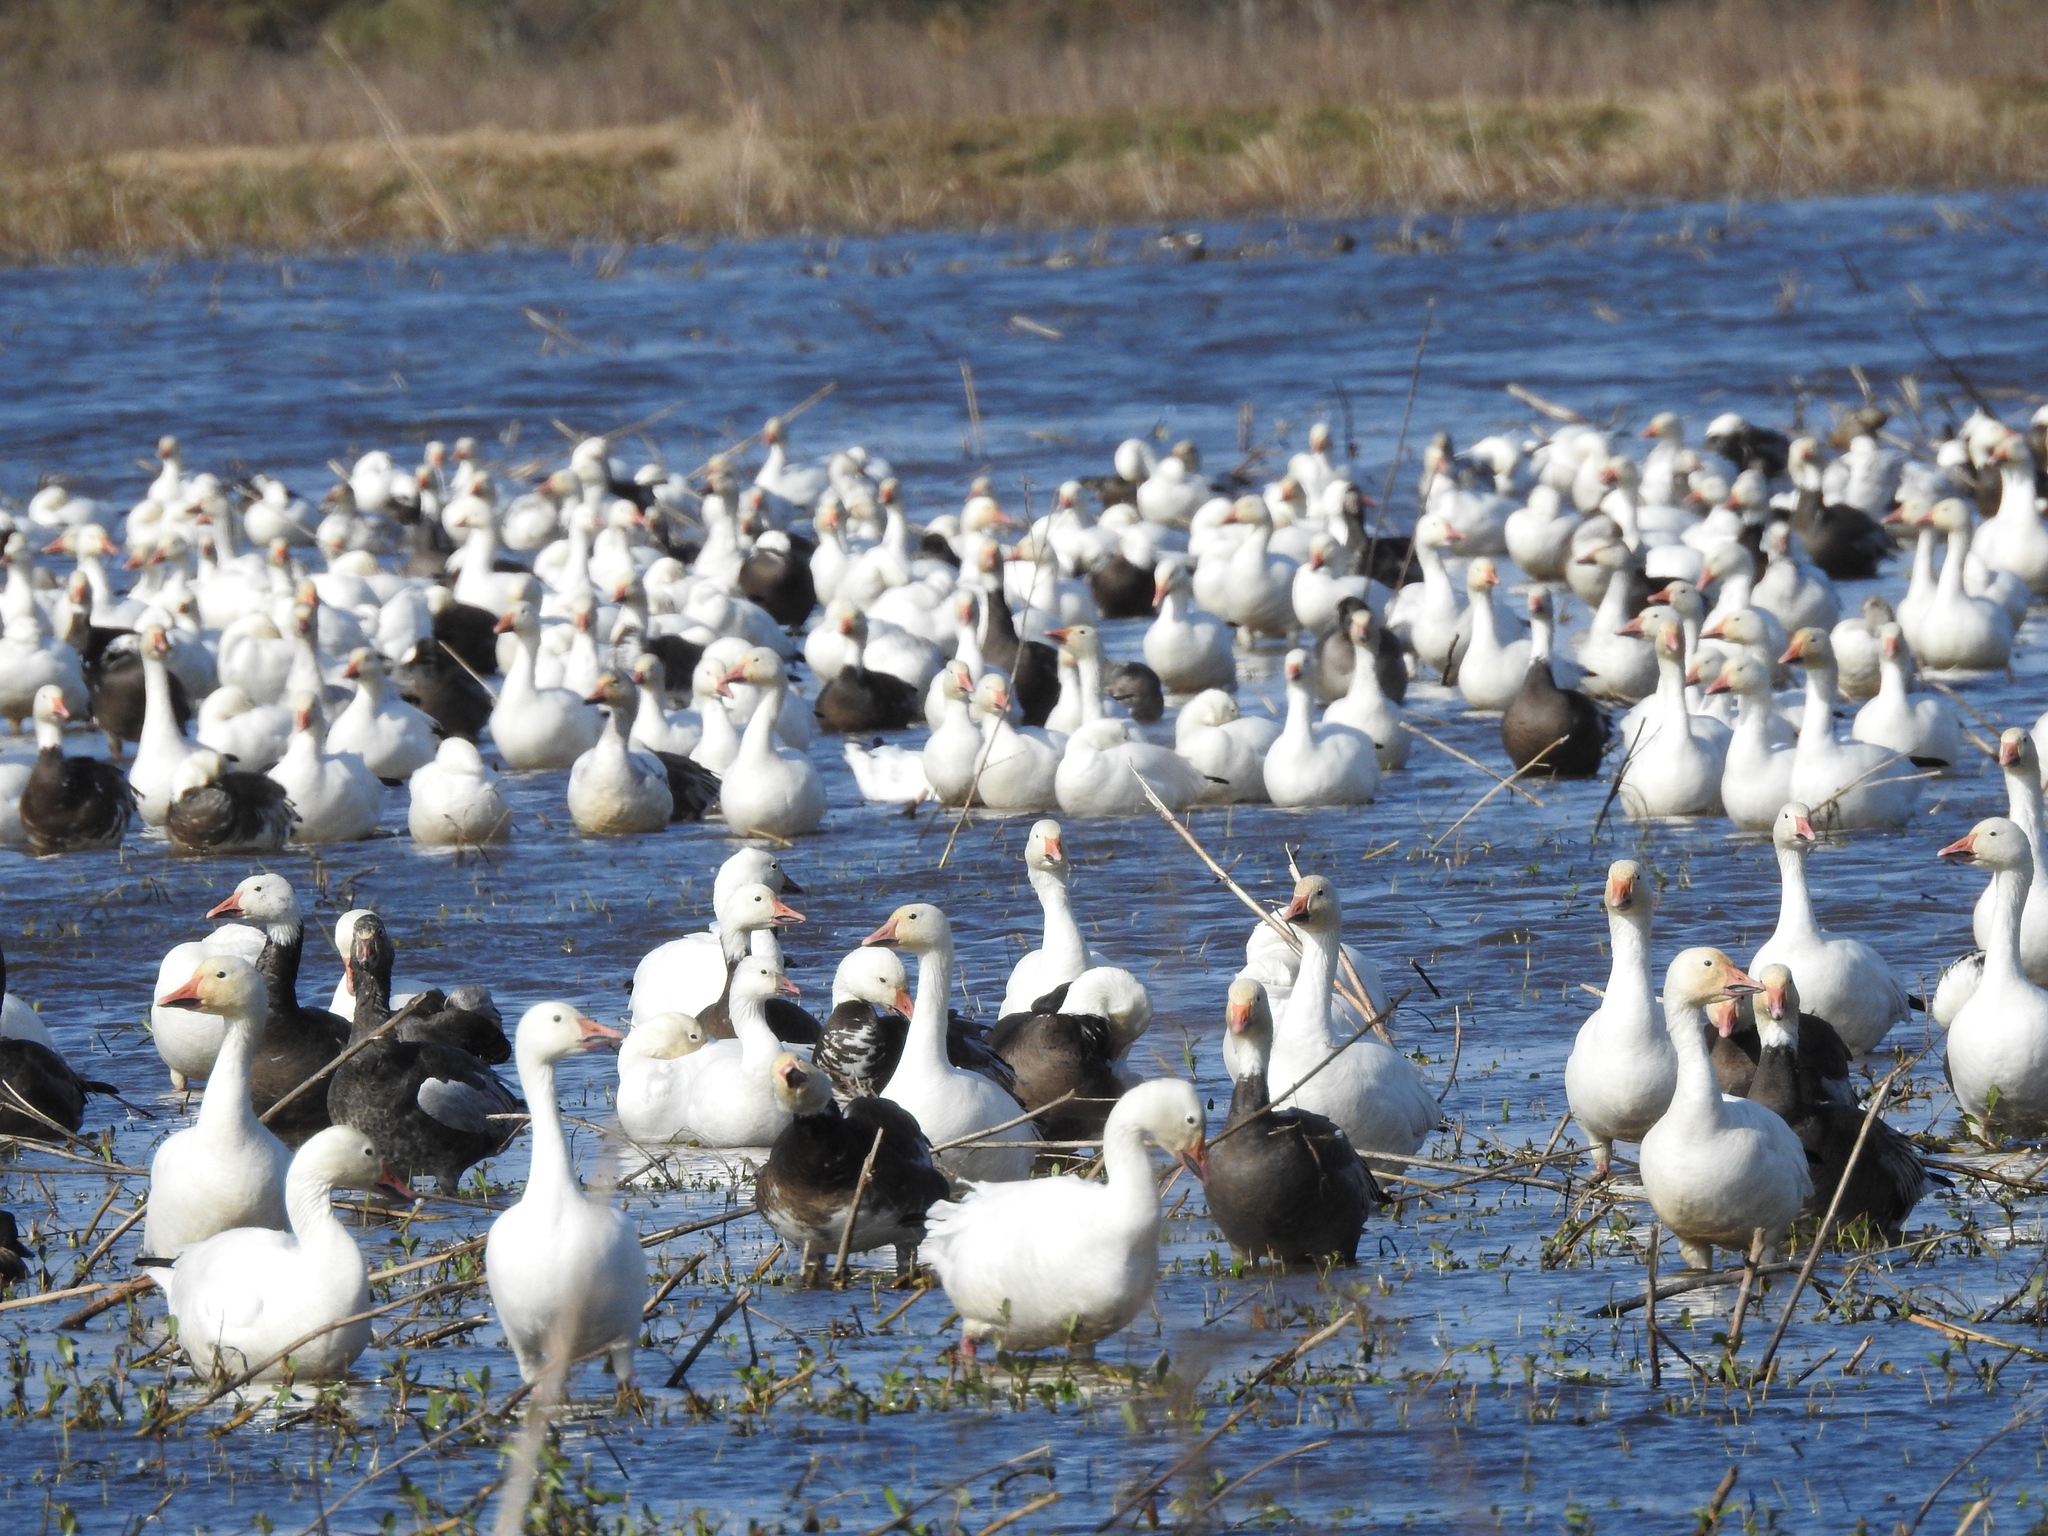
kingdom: Animalia
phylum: Chordata
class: Aves
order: Anseriformes
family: Anatidae
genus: Anser
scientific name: Anser caerulescens
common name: Snow goose
